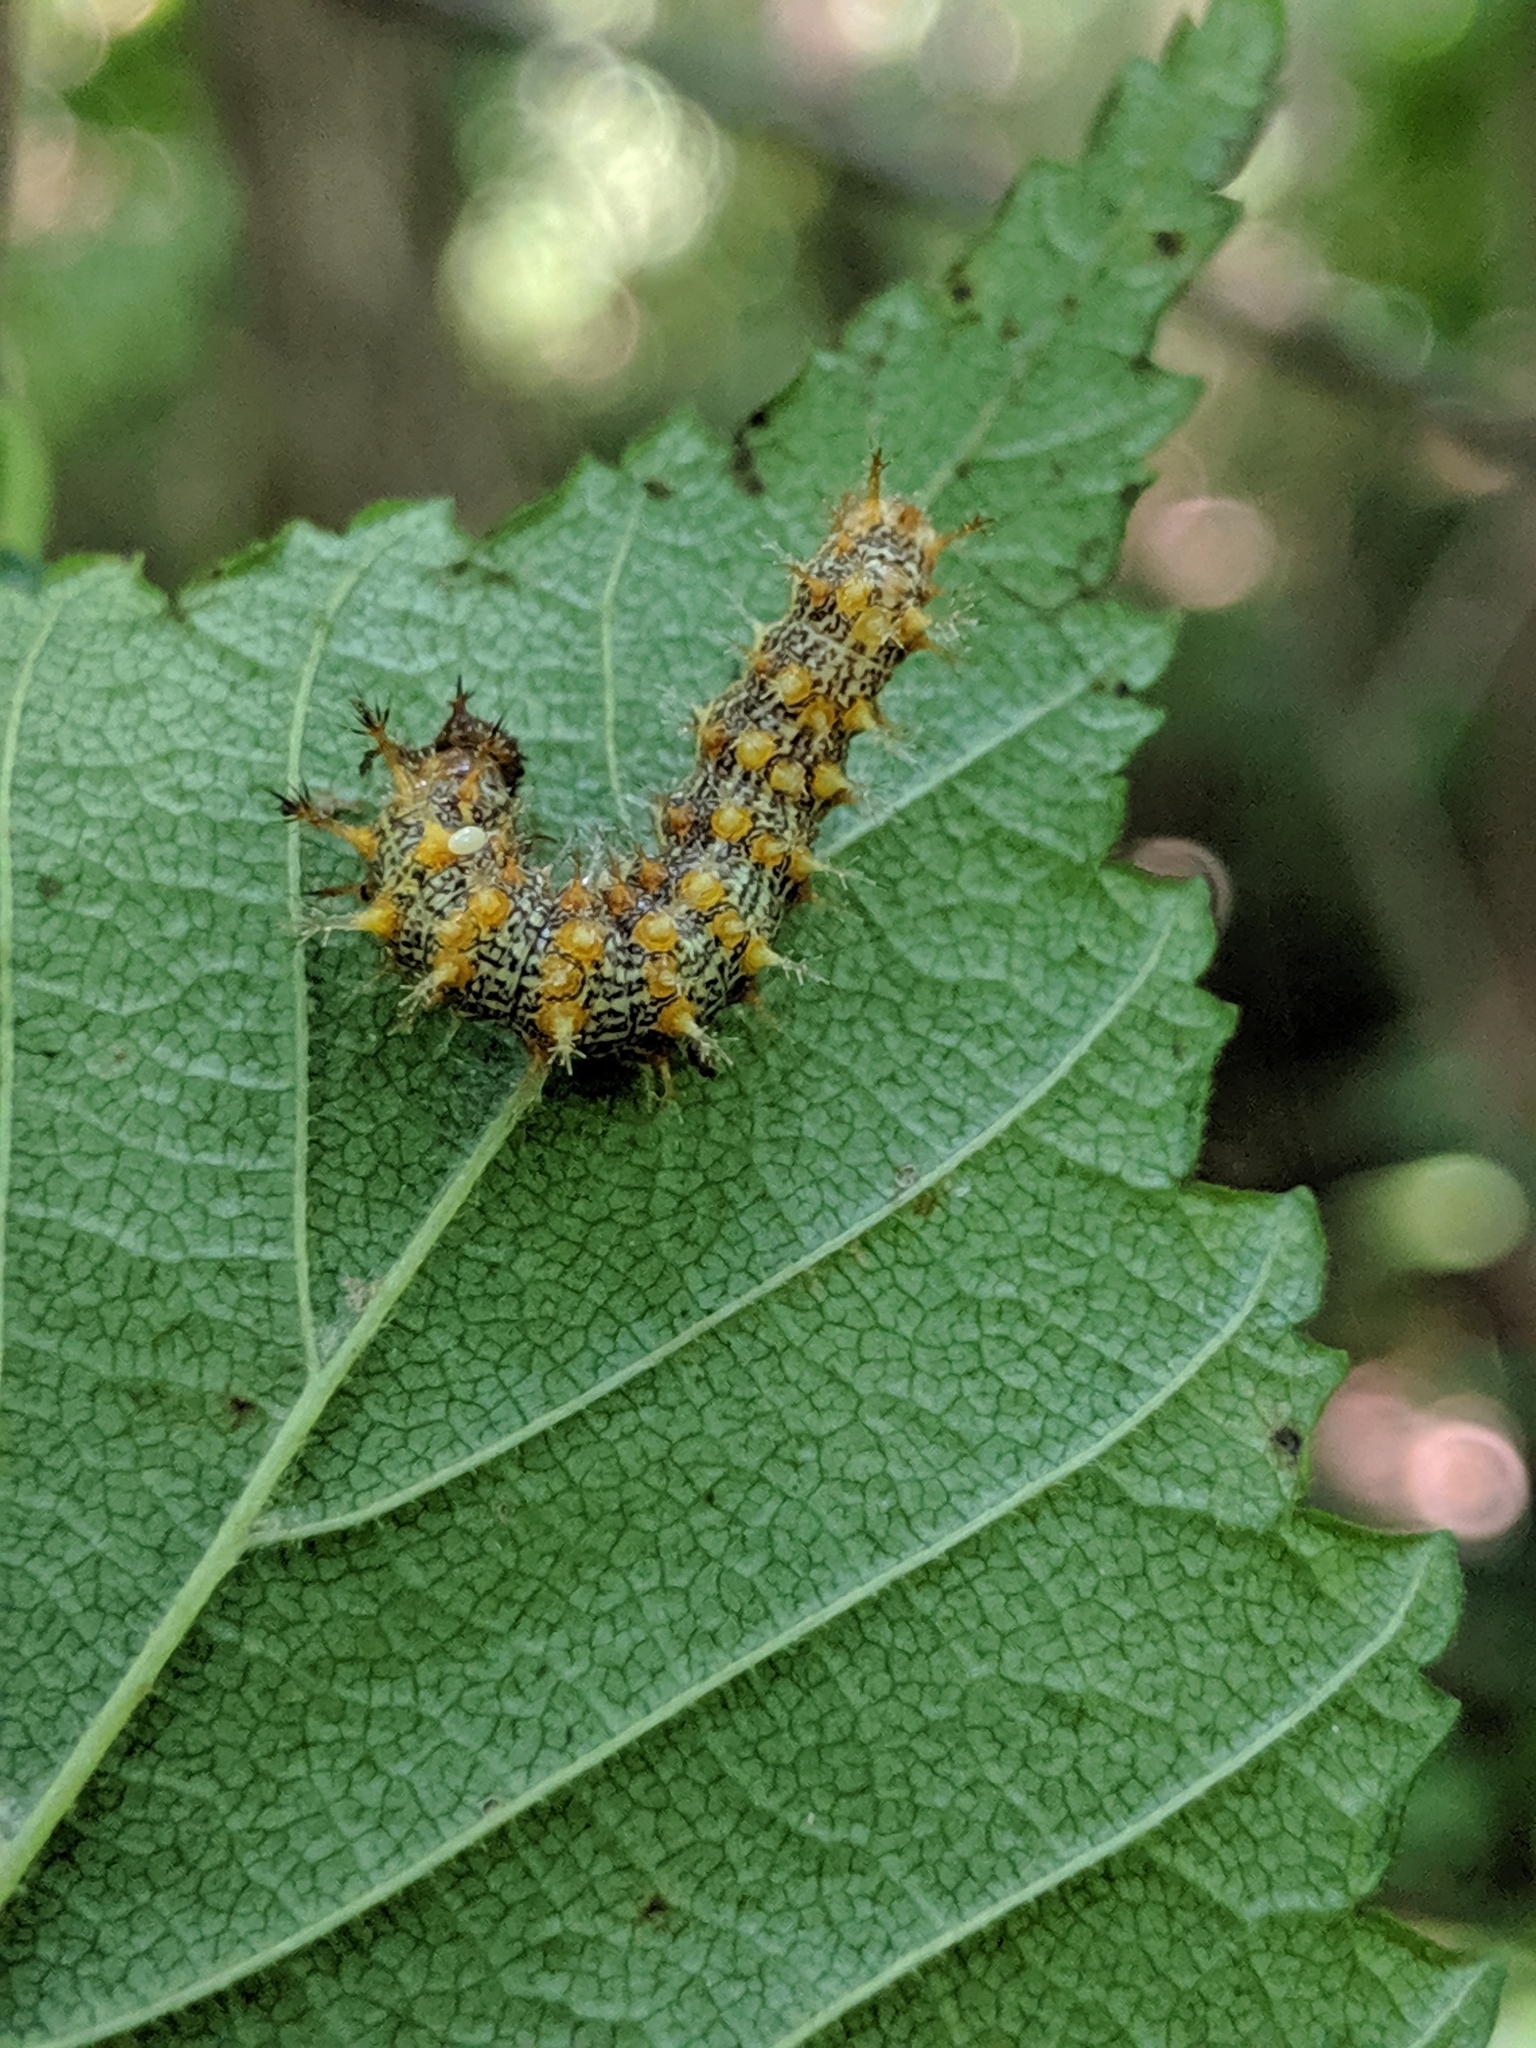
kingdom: Animalia
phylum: Arthropoda
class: Insecta
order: Lepidoptera
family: Nymphalidae
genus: Polygonia
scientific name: Polygonia interrogationis
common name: Question mark
